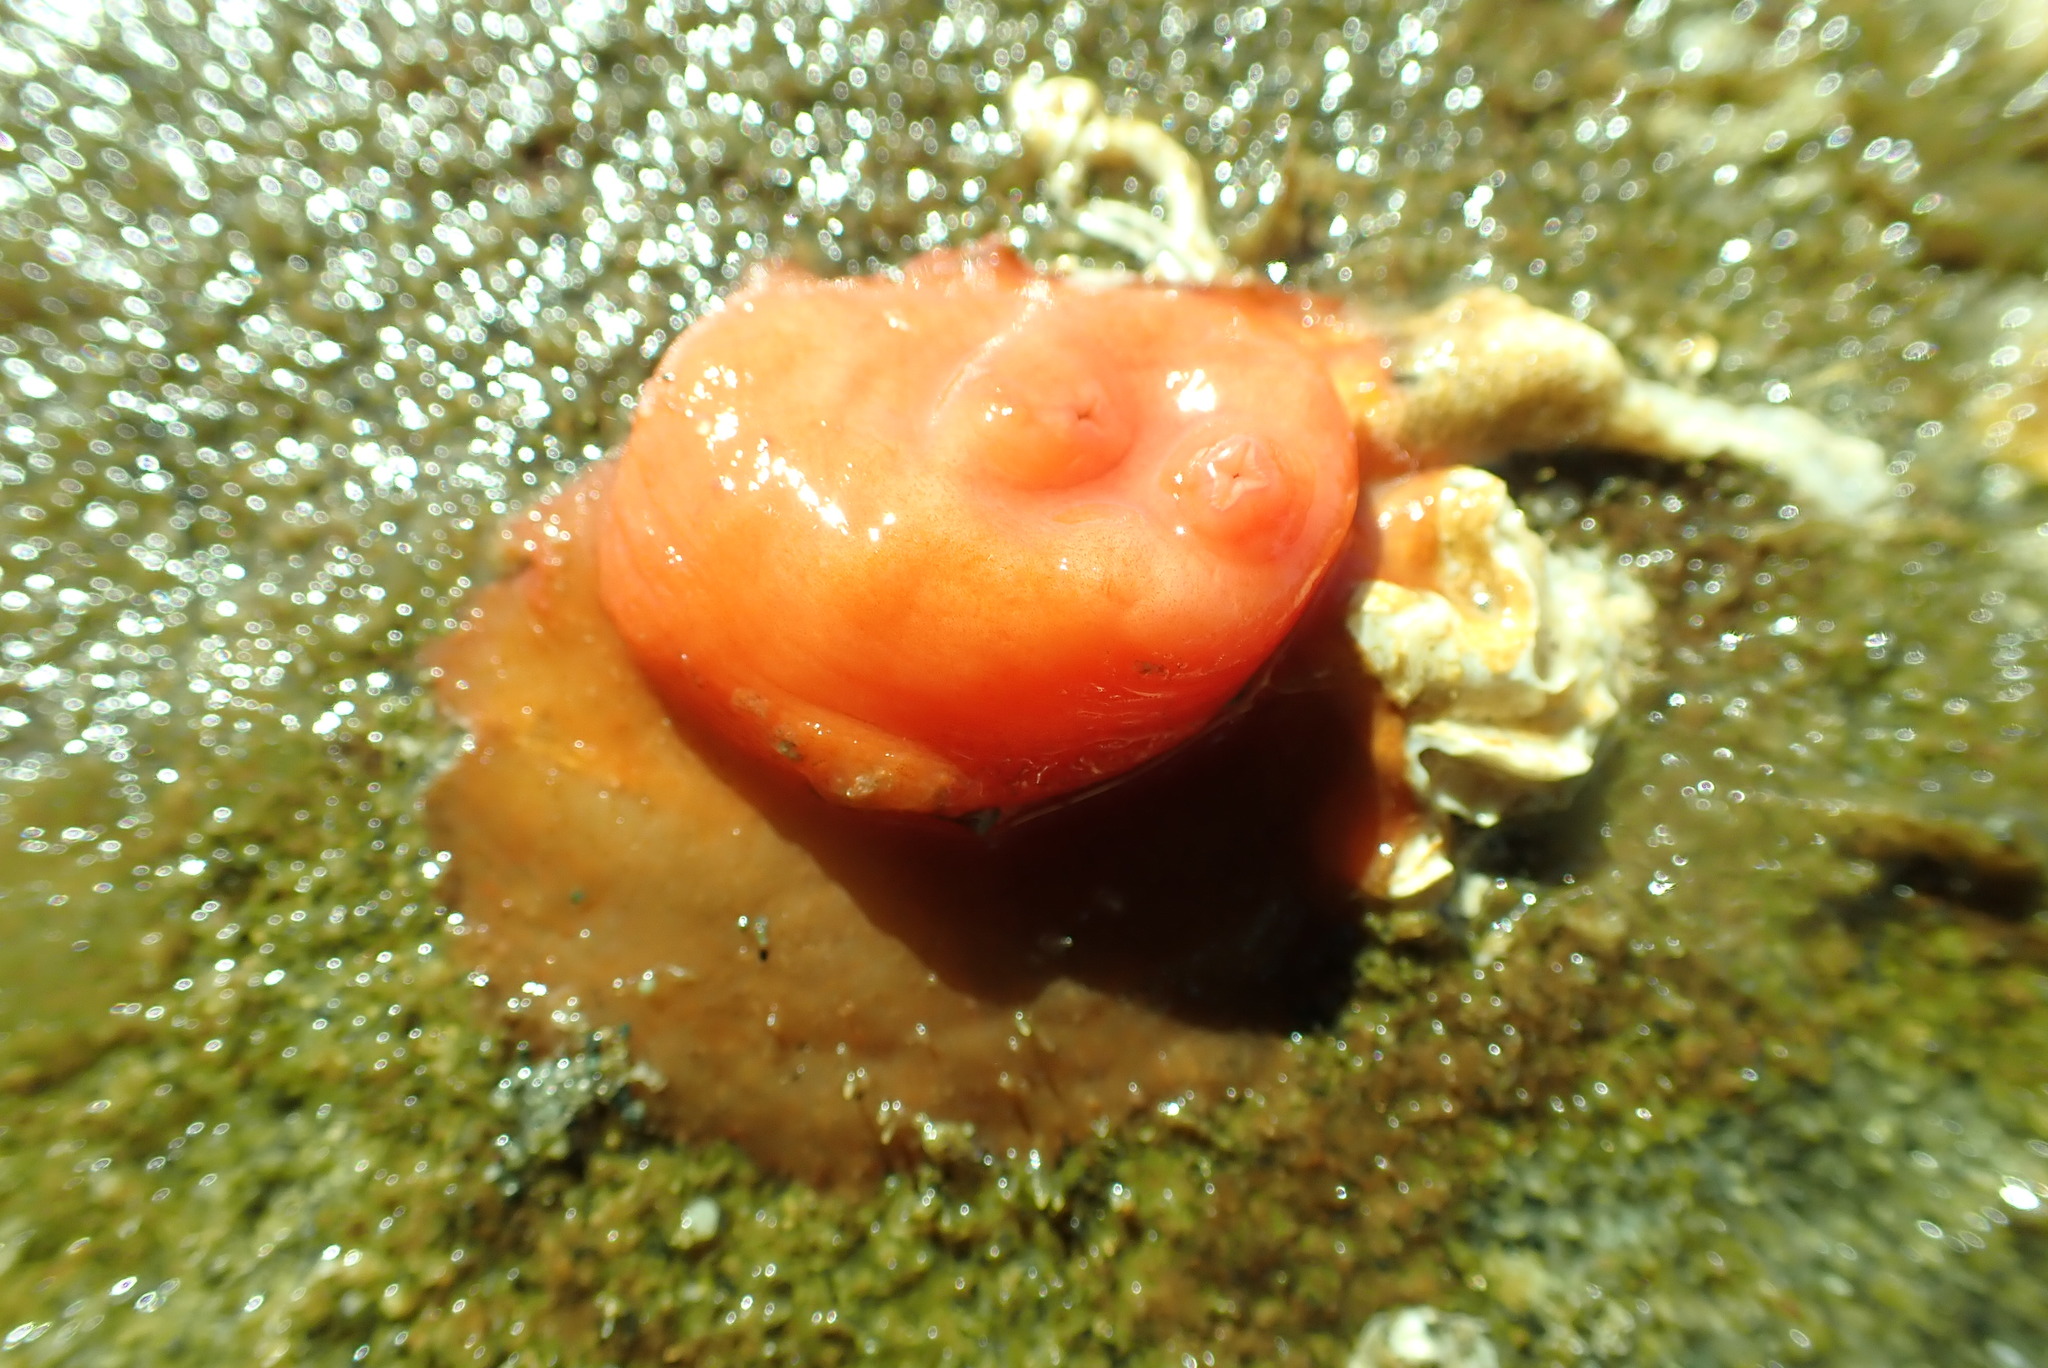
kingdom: Animalia
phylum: Chordata
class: Ascidiacea
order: Stolidobranchia
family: Styelidae
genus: Cnemidocarpa
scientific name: Cnemidocarpa finmarkiensis
